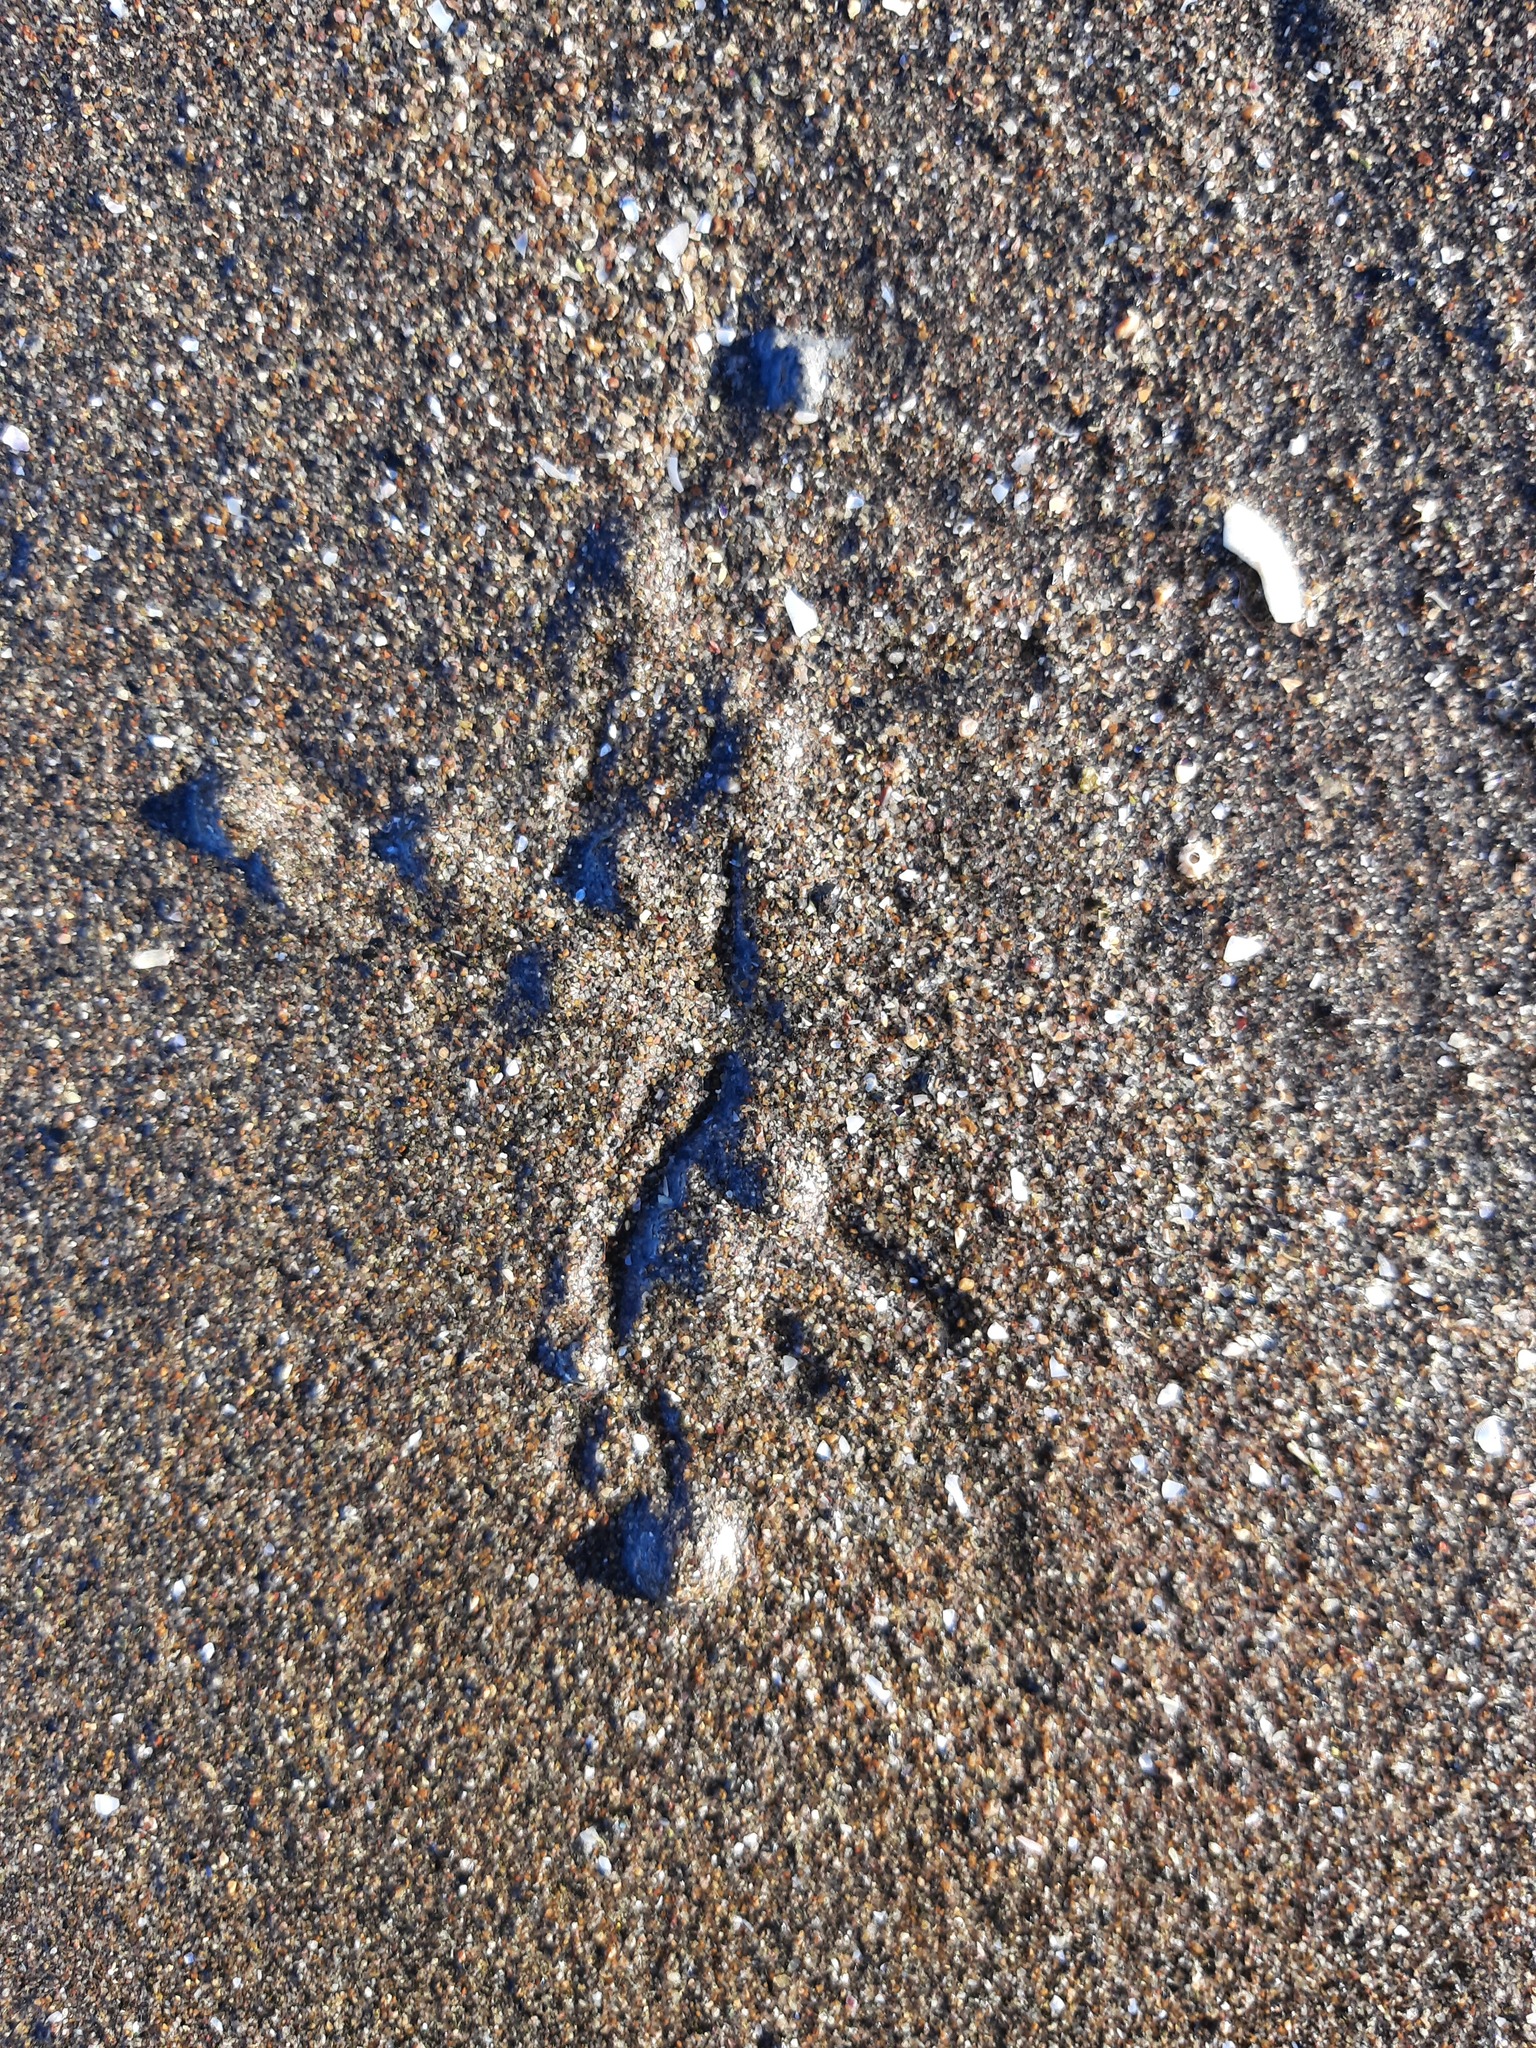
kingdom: Animalia
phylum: Mollusca
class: Bivalvia
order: Cardiida
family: Tellinidae
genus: Macomona
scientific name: Macomona liliana
